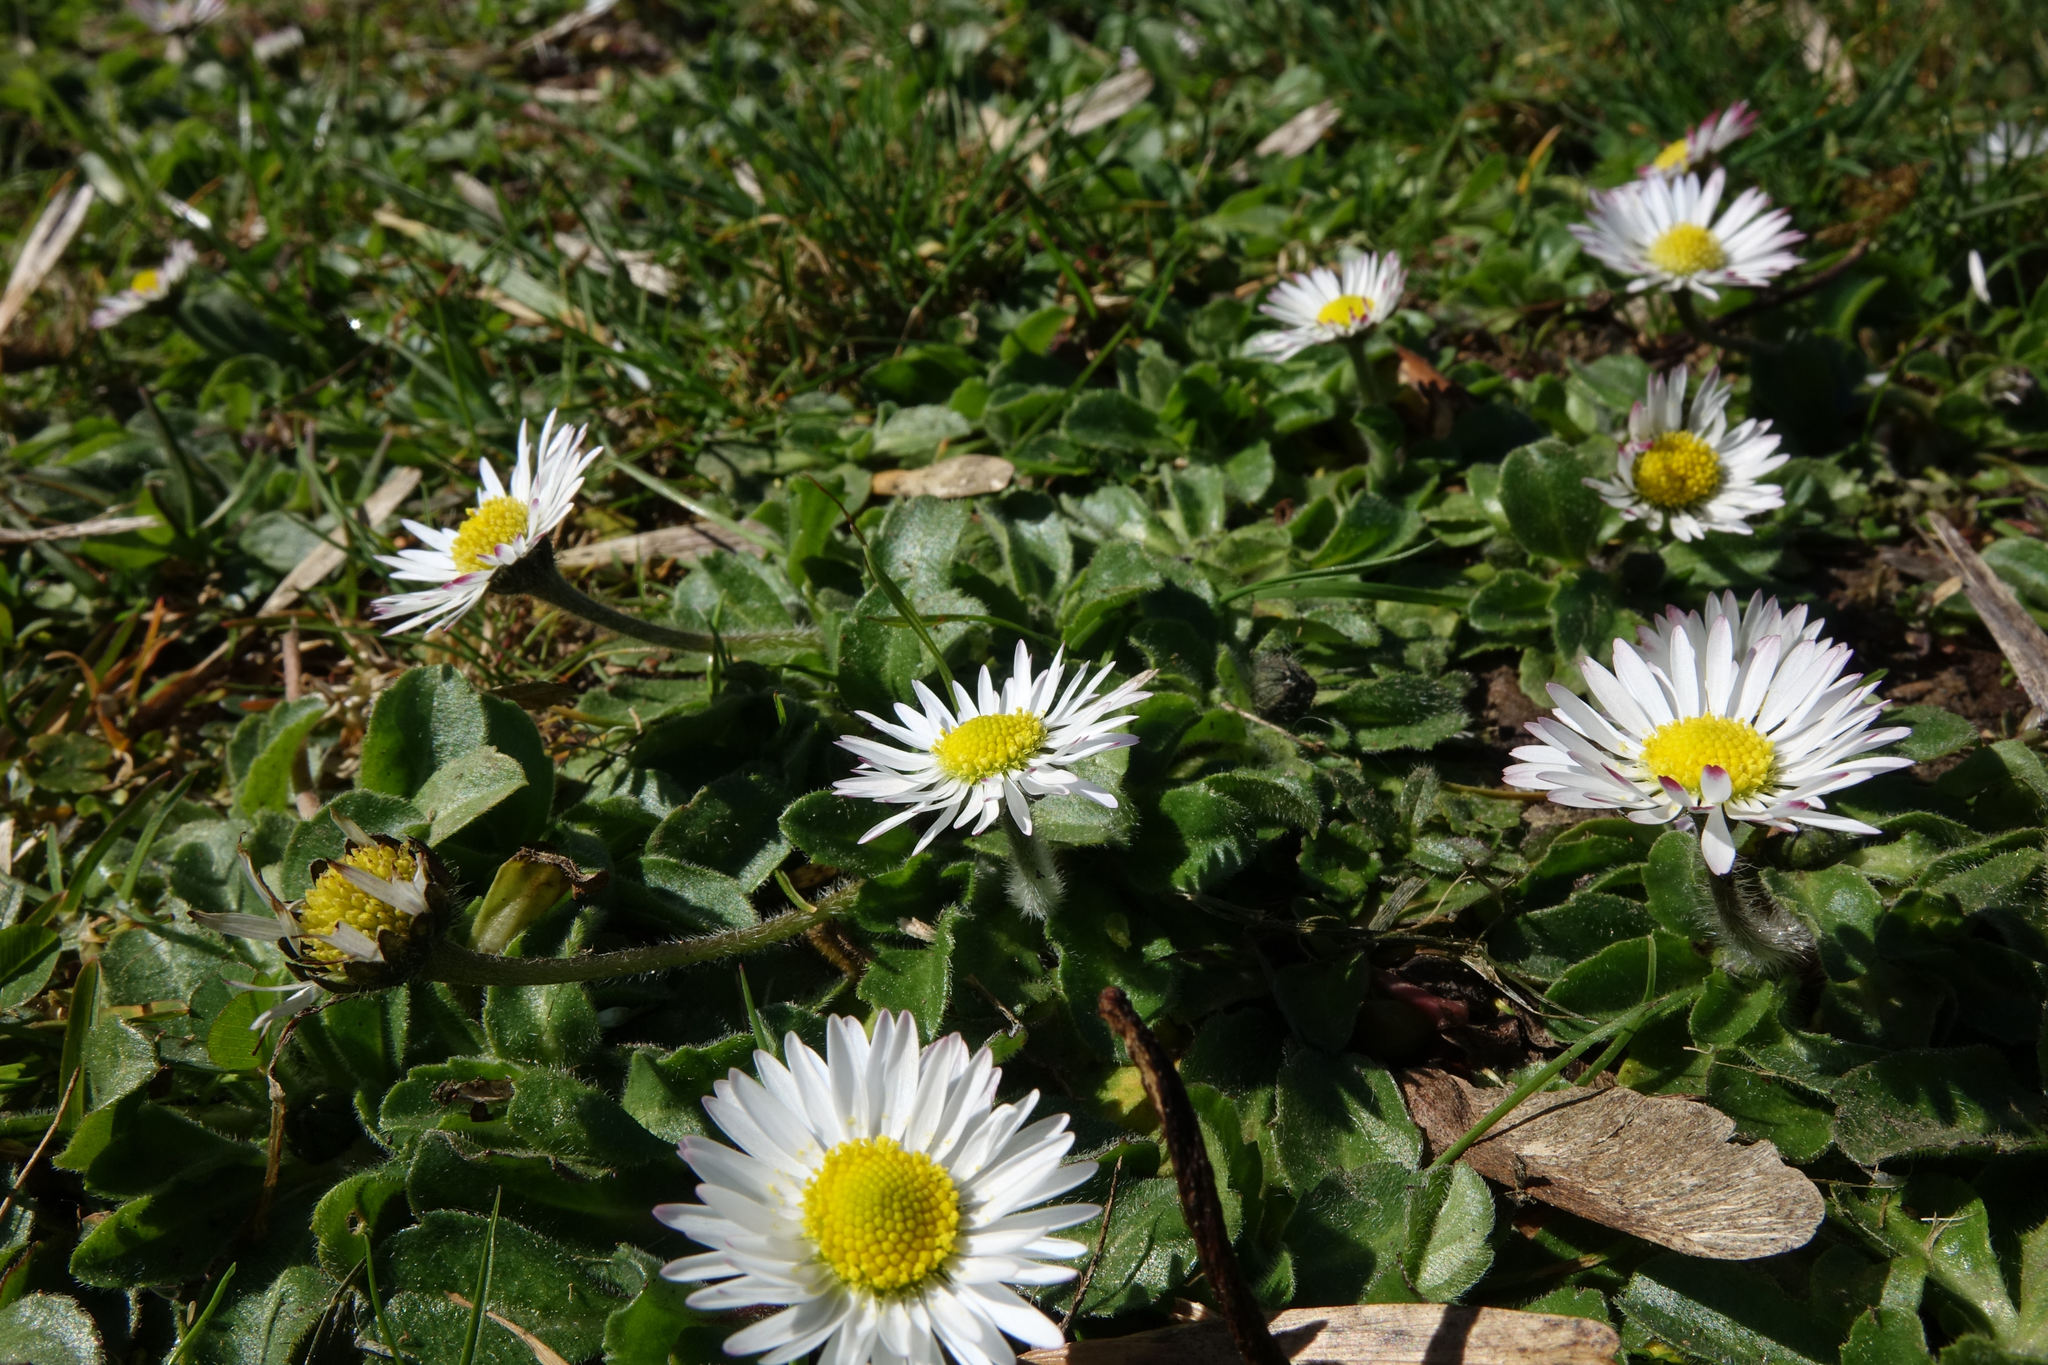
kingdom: Plantae
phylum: Tracheophyta
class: Magnoliopsida
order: Asterales
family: Asteraceae
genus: Bellis
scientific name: Bellis perennis
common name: Lawndaisy
